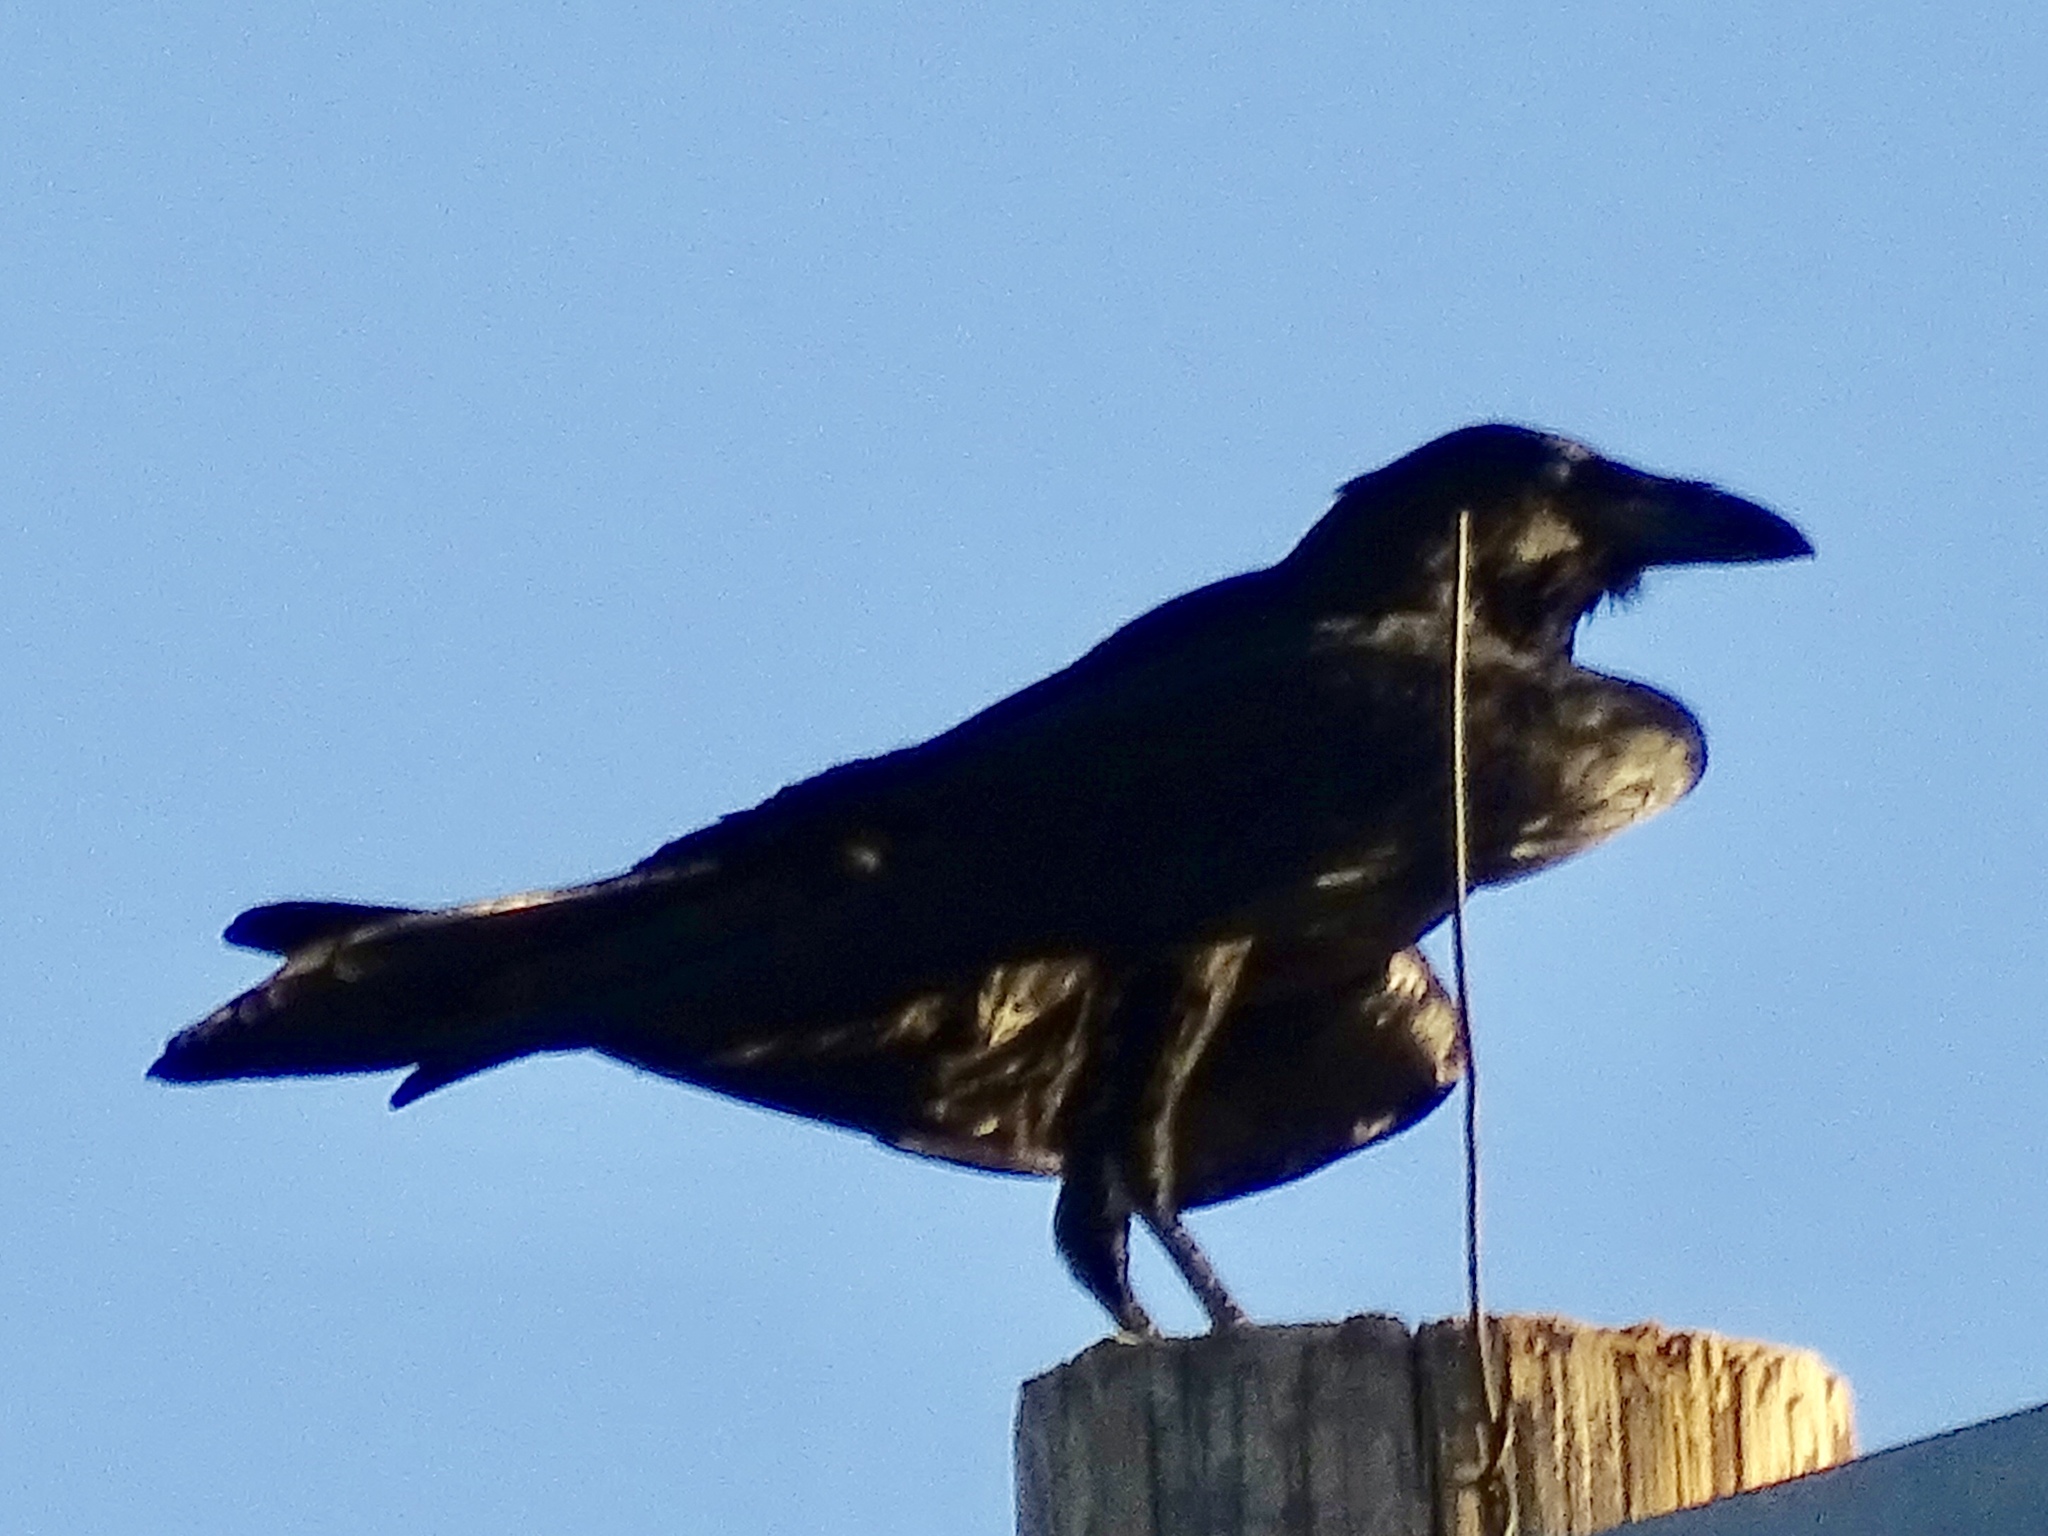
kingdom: Animalia
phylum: Chordata
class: Aves
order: Passeriformes
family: Corvidae
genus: Corvus
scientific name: Corvus corax
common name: Common raven
